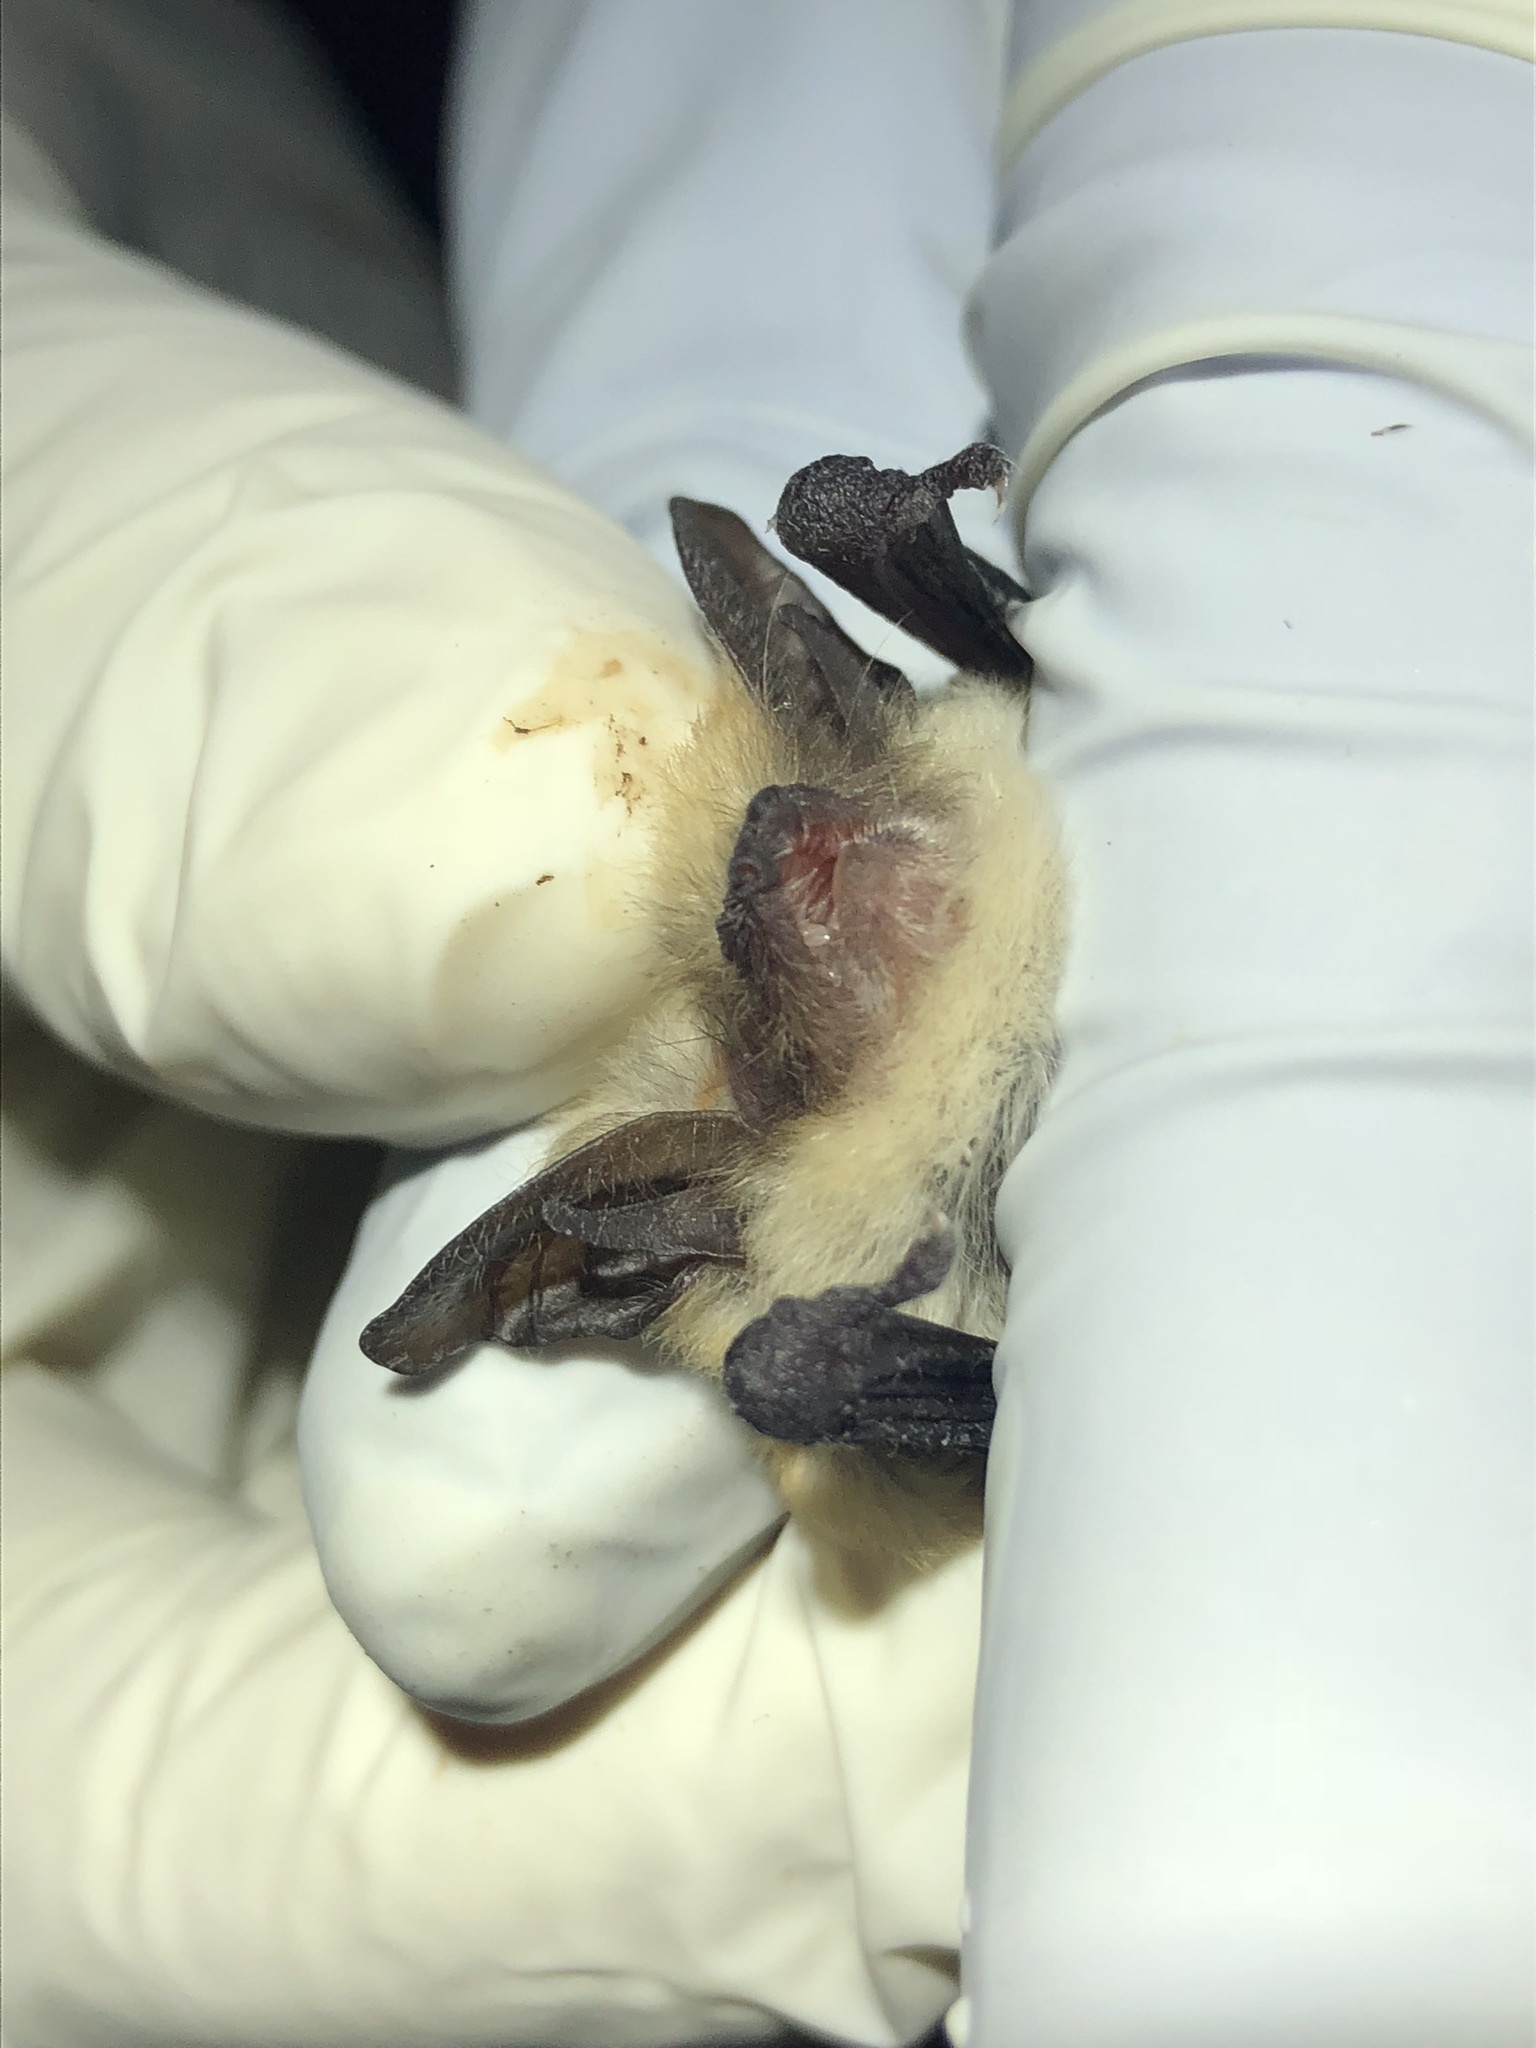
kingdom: Animalia
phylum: Chordata
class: Mammalia
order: Chiroptera
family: Vespertilionidae
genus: Myotis
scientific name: Myotis ciliolabrum
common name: Western small-footed myotis
